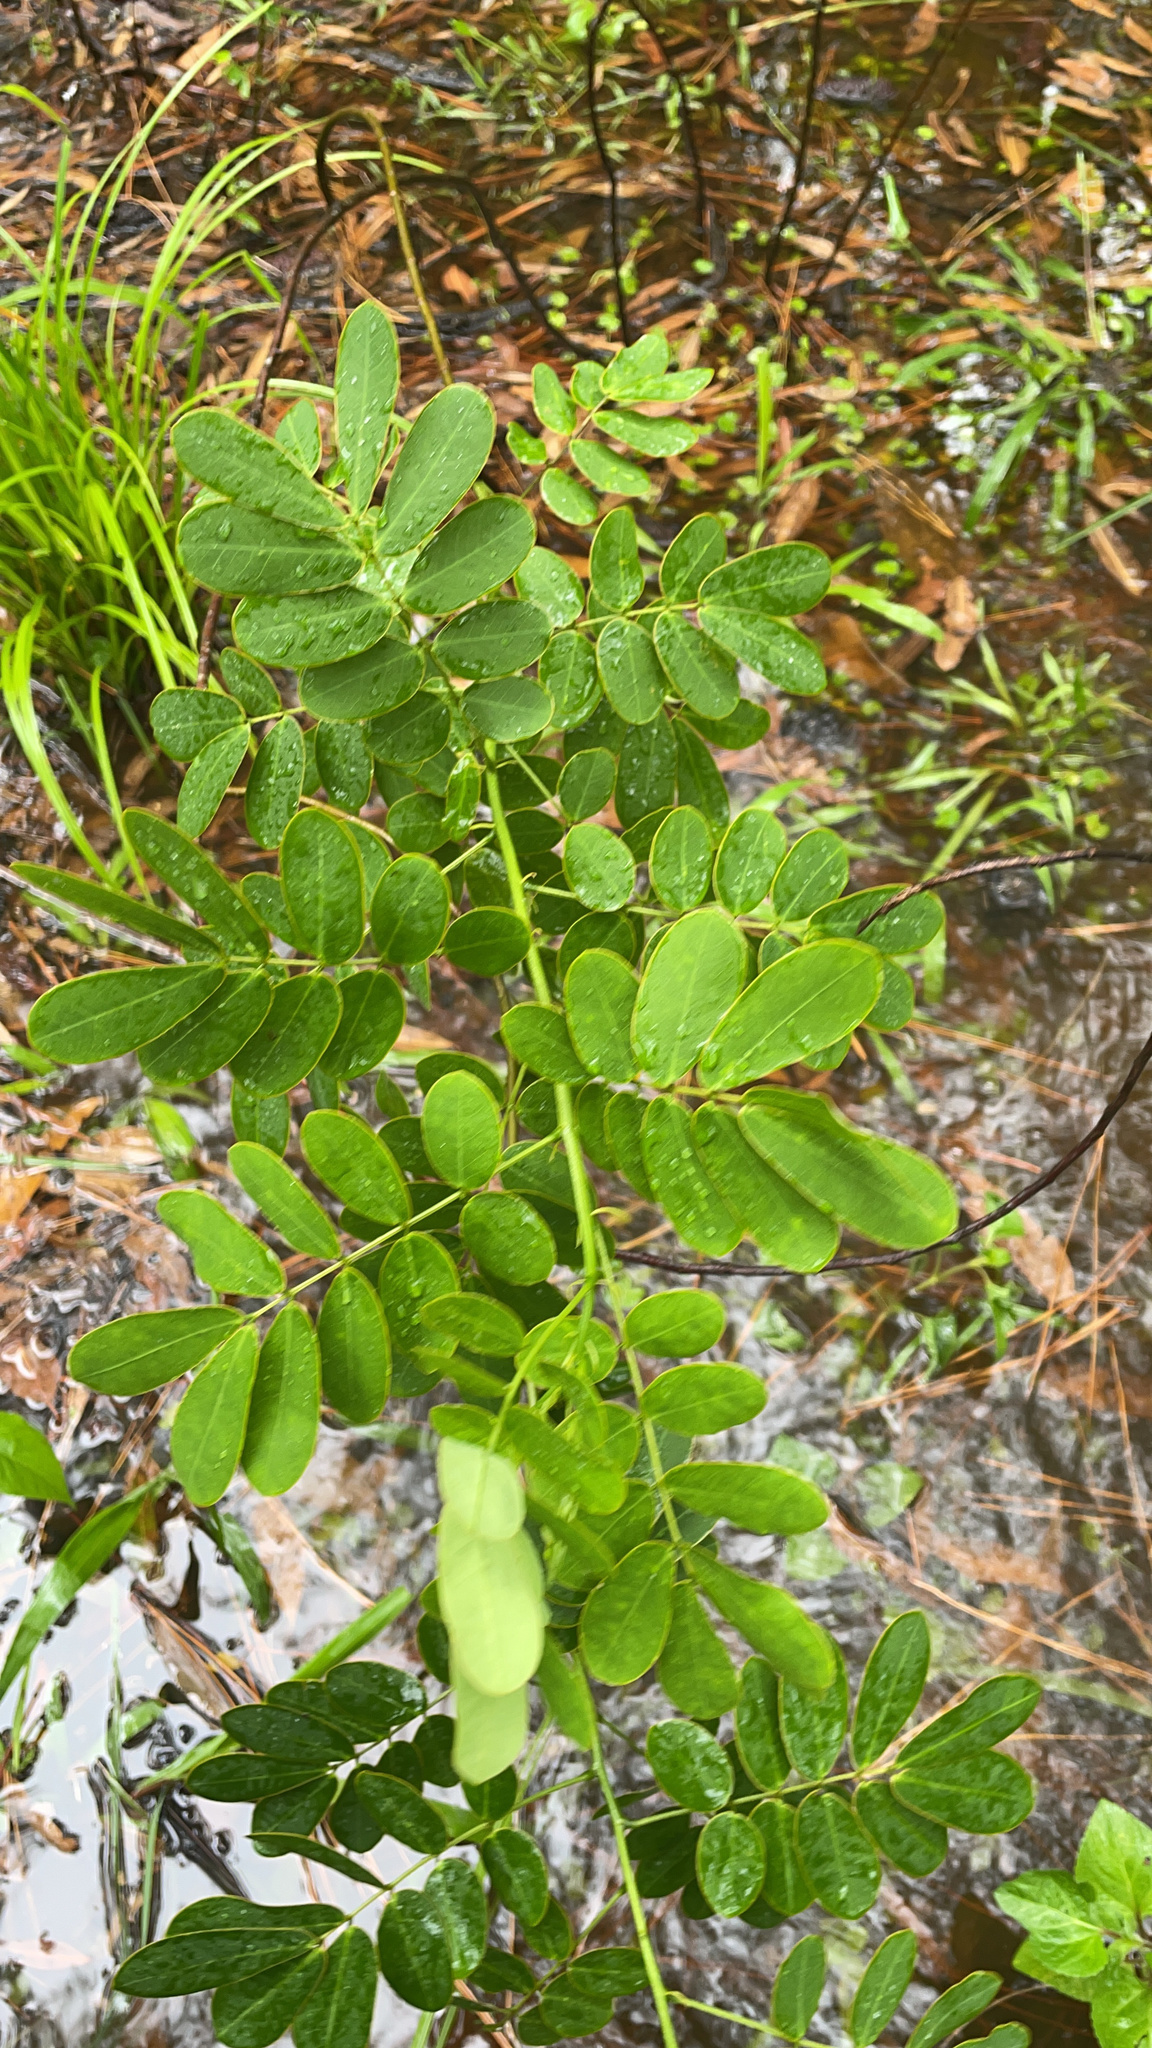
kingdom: Plantae
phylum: Tracheophyta
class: Magnoliopsida
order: Fabales
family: Fabaceae
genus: Senna
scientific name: Senna pendula
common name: Easter cassia
